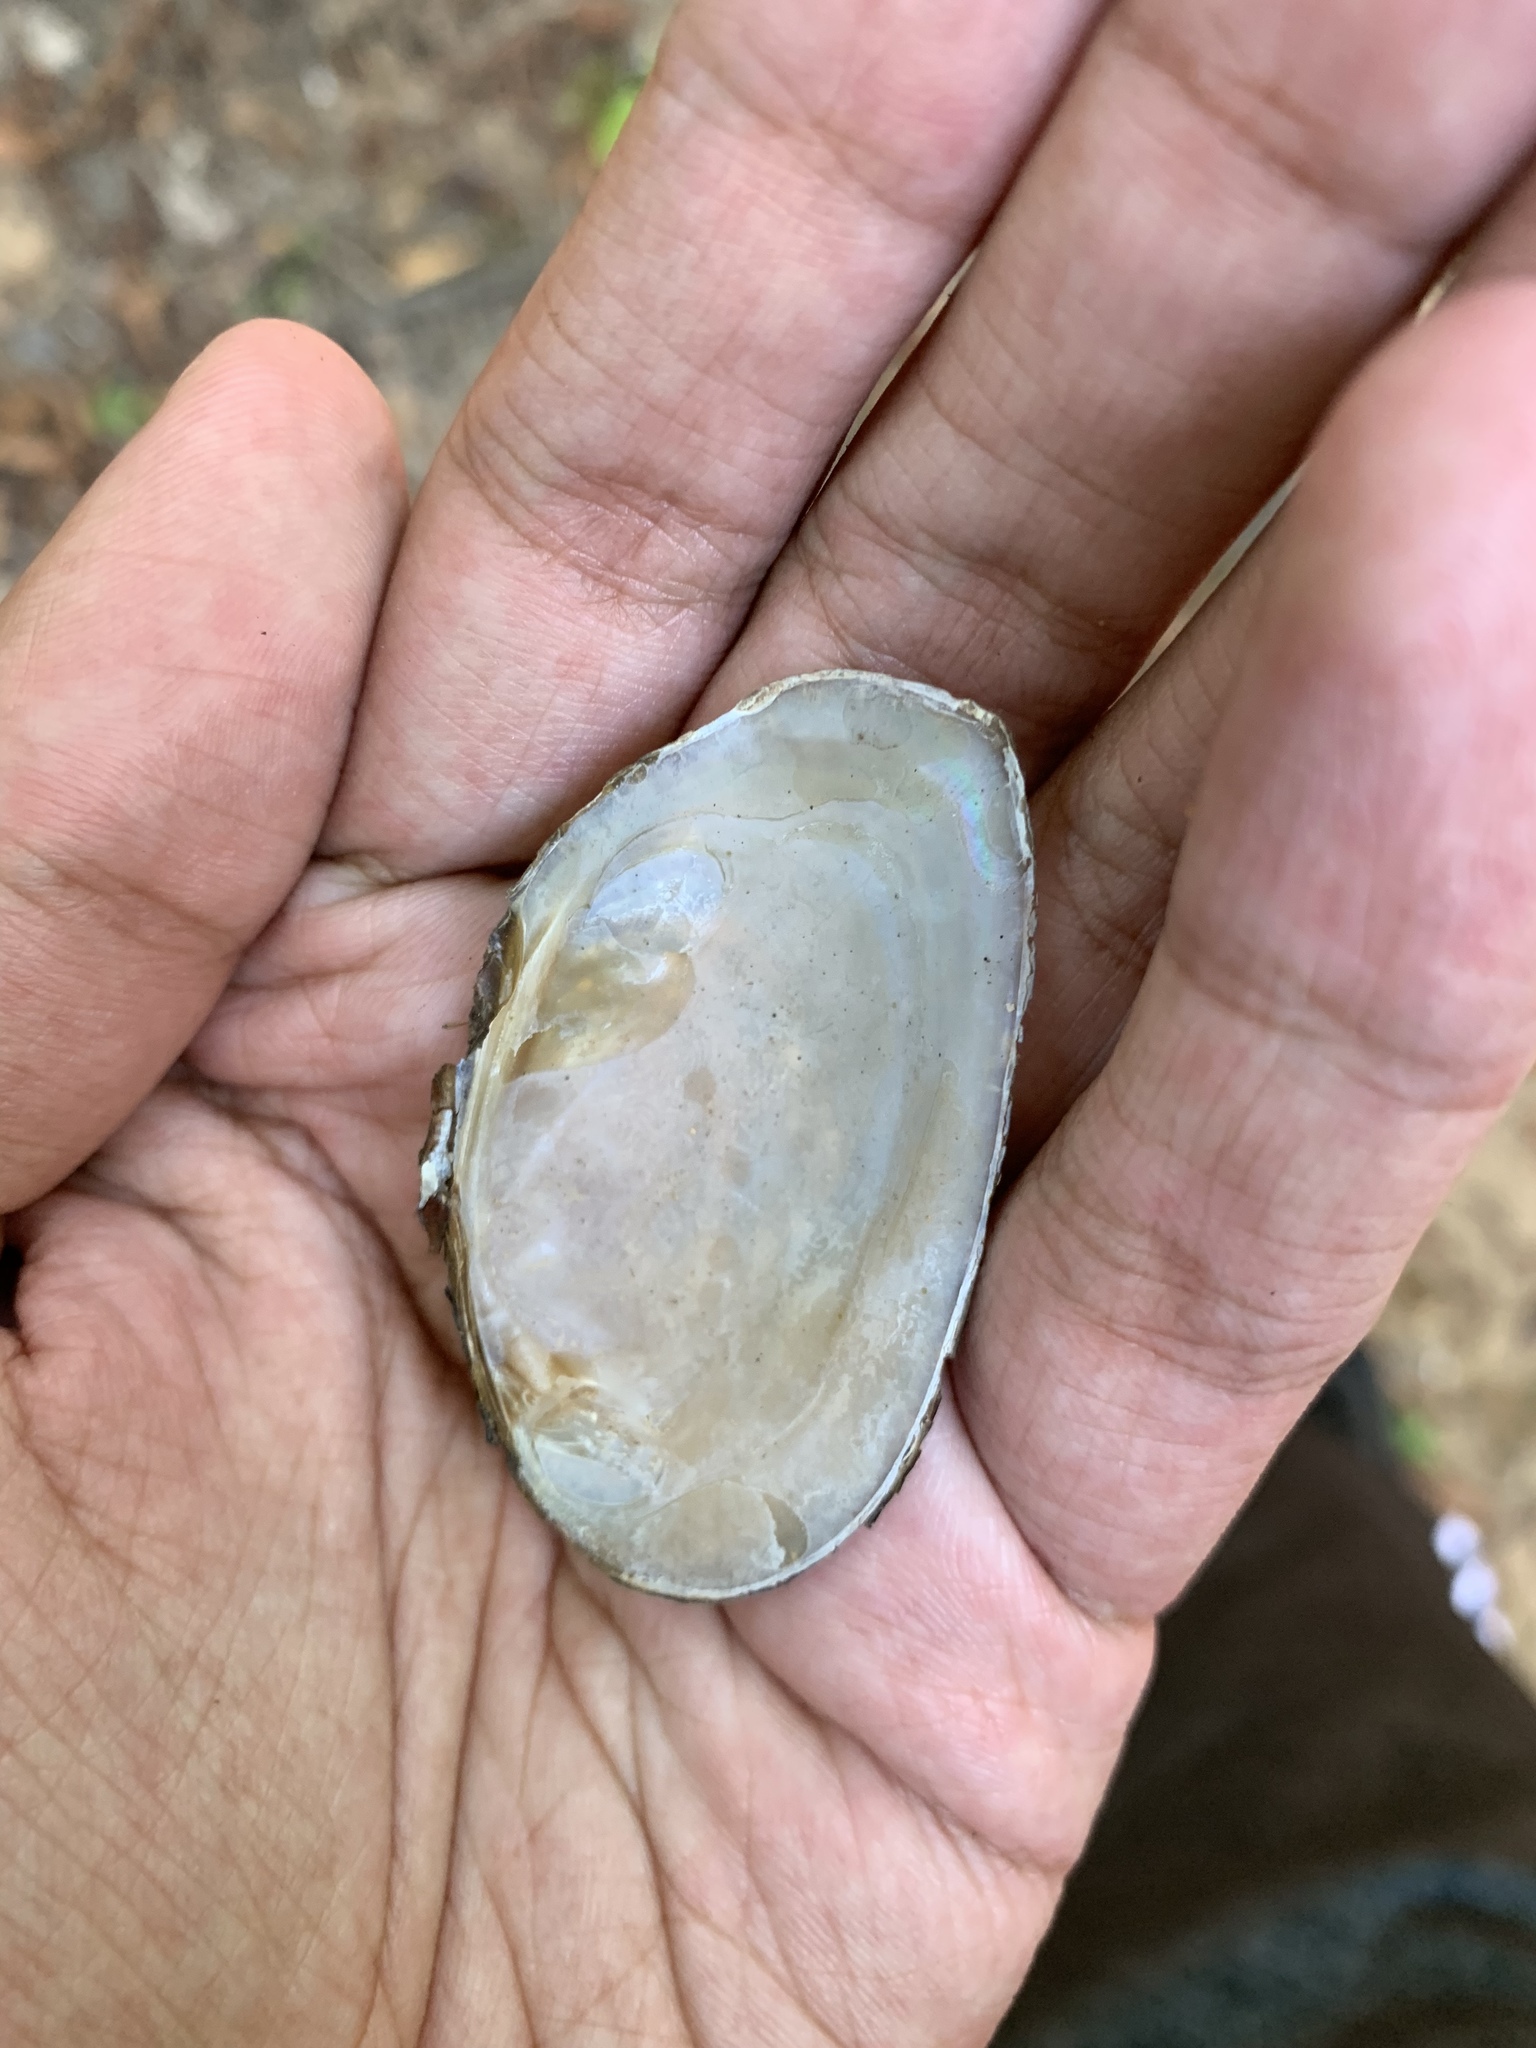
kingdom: Animalia
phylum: Mollusca
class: Bivalvia
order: Unionida
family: Unionidae
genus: Elliptio
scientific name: Elliptio complanata
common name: Eastern elliptio
